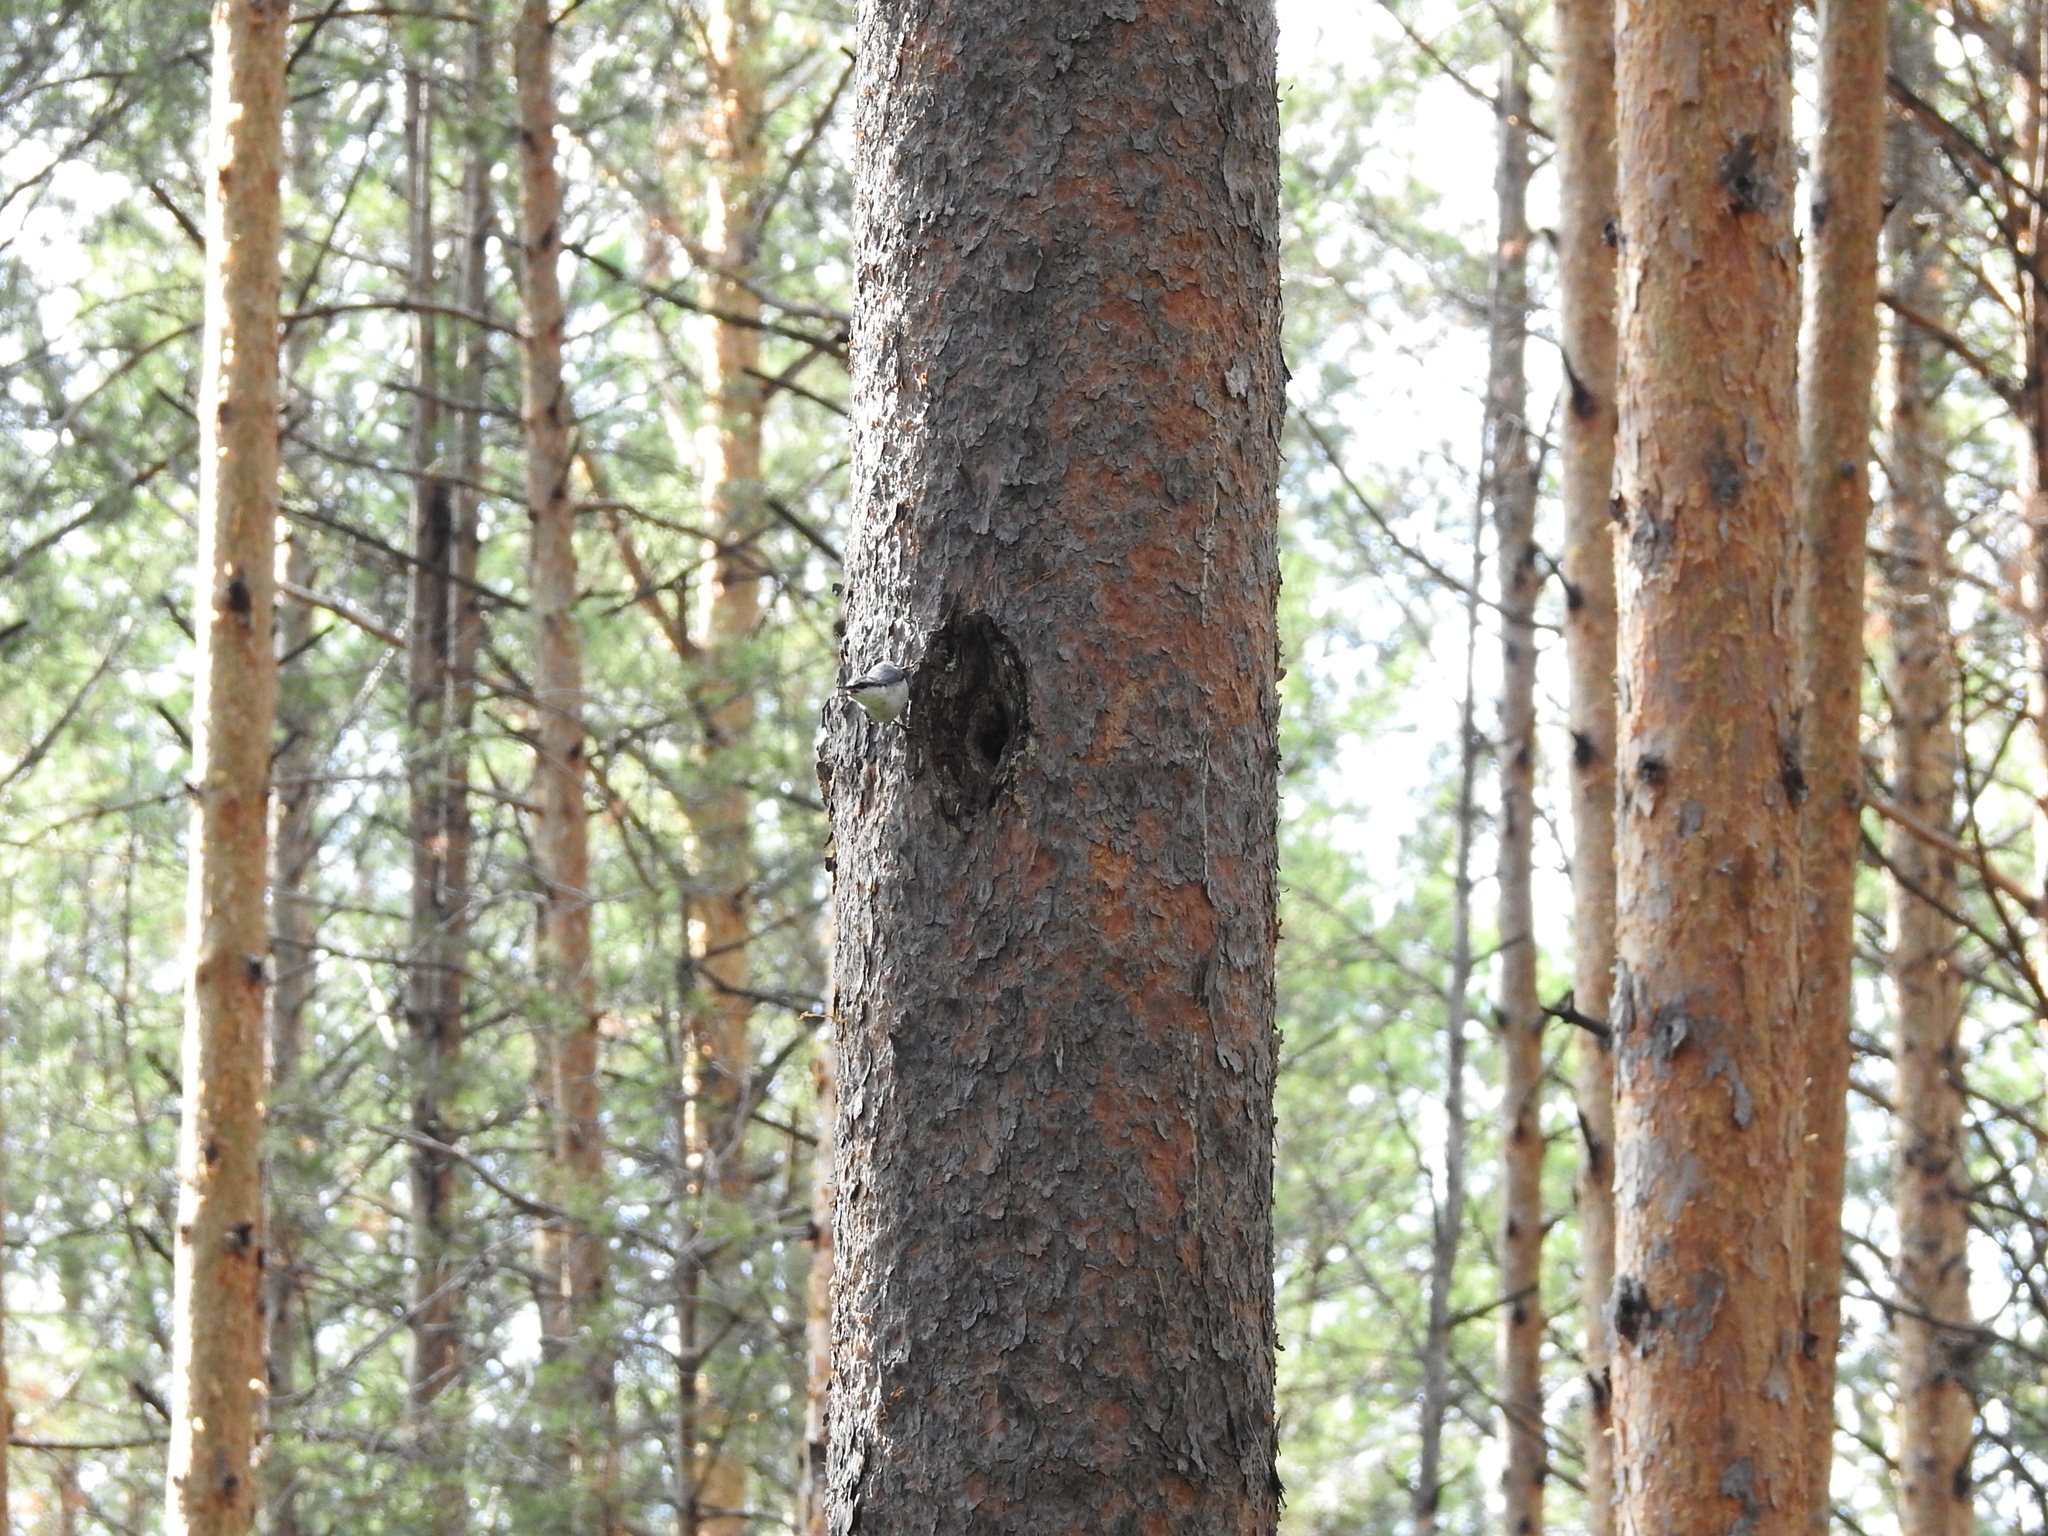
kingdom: Animalia
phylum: Chordata
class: Aves
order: Passeriformes
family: Sittidae
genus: Sitta
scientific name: Sitta europaea
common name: Eurasian nuthatch
